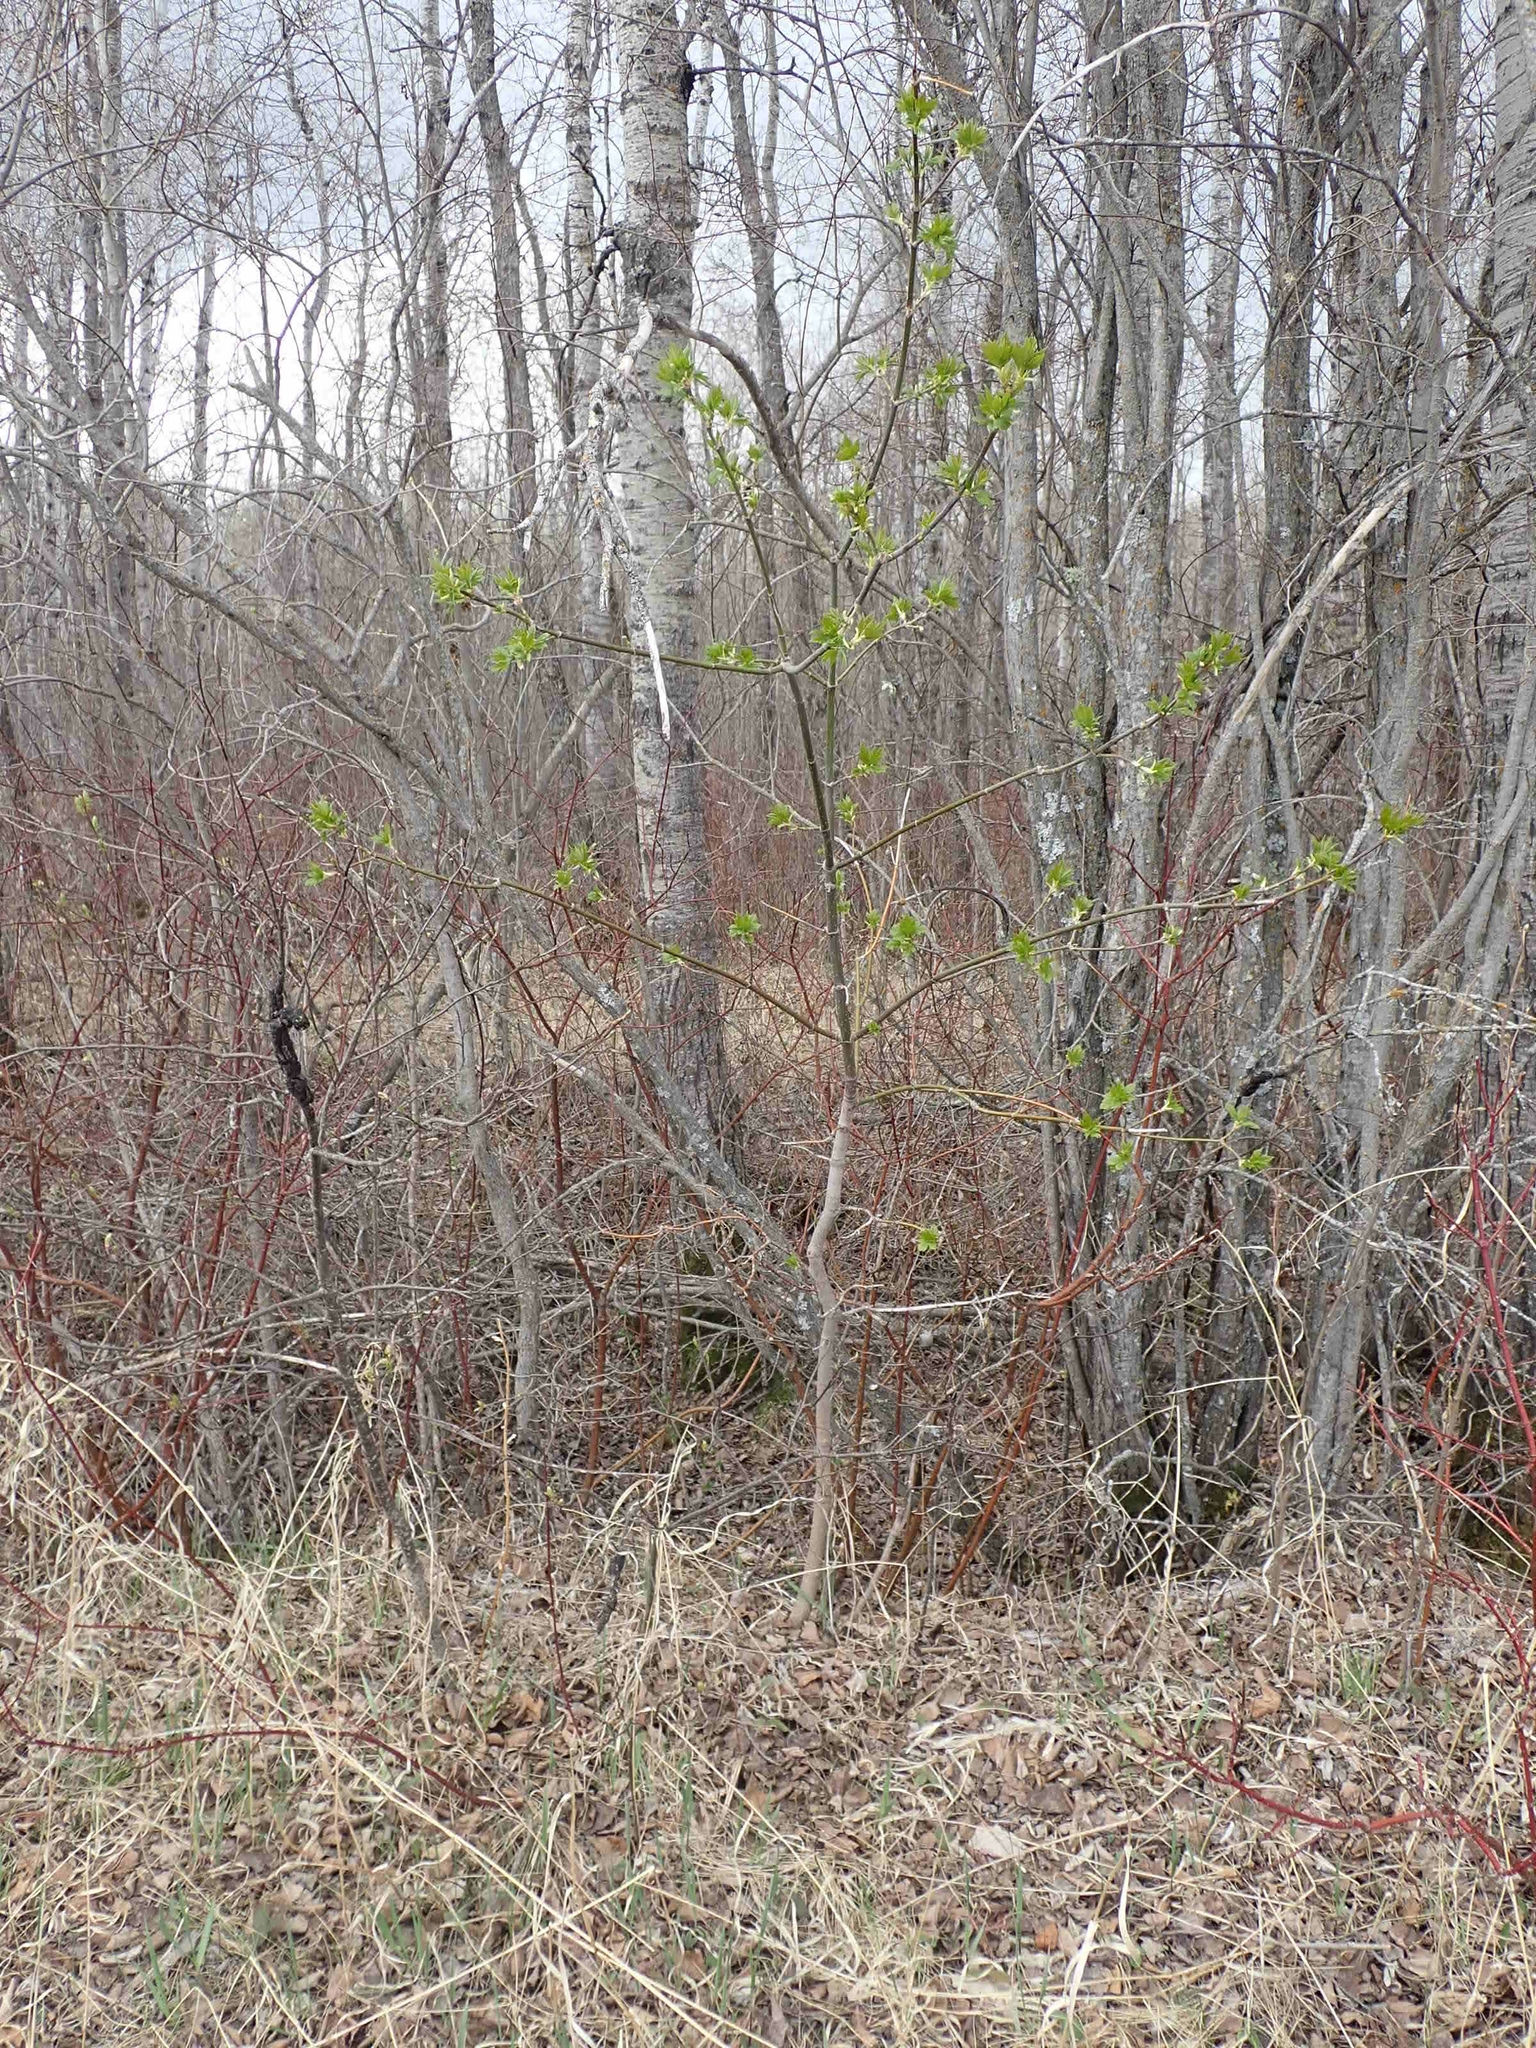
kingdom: Plantae
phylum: Tracheophyta
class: Magnoliopsida
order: Sapindales
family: Sapindaceae
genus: Acer
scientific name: Acer negundo
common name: Ashleaf maple
